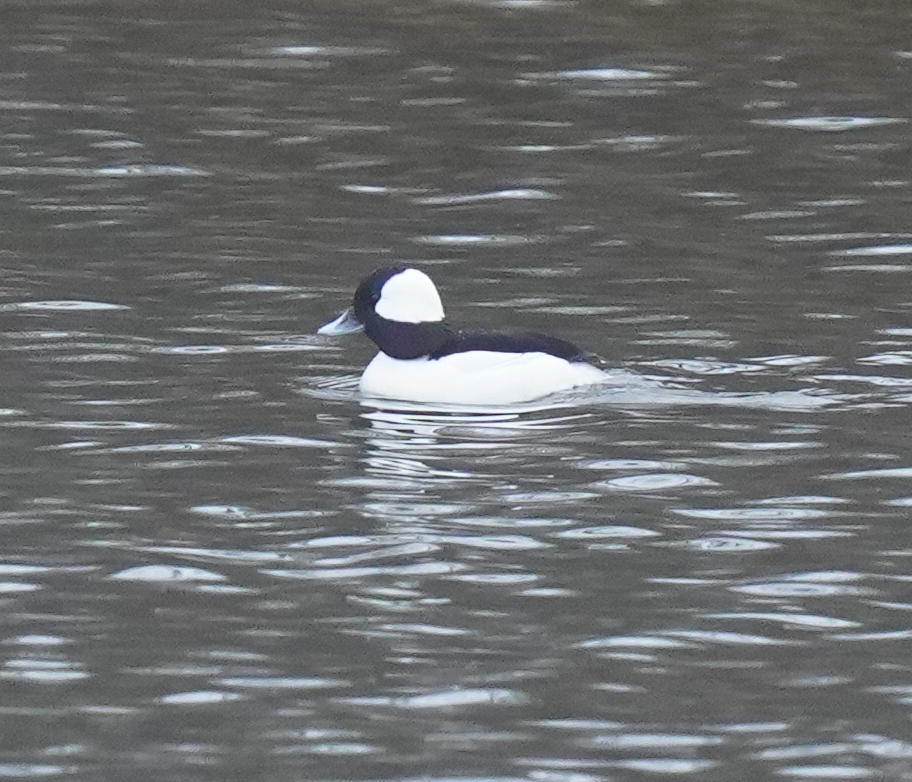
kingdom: Animalia
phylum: Chordata
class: Aves
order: Anseriformes
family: Anatidae
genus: Bucephala
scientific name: Bucephala albeola
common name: Bufflehead
